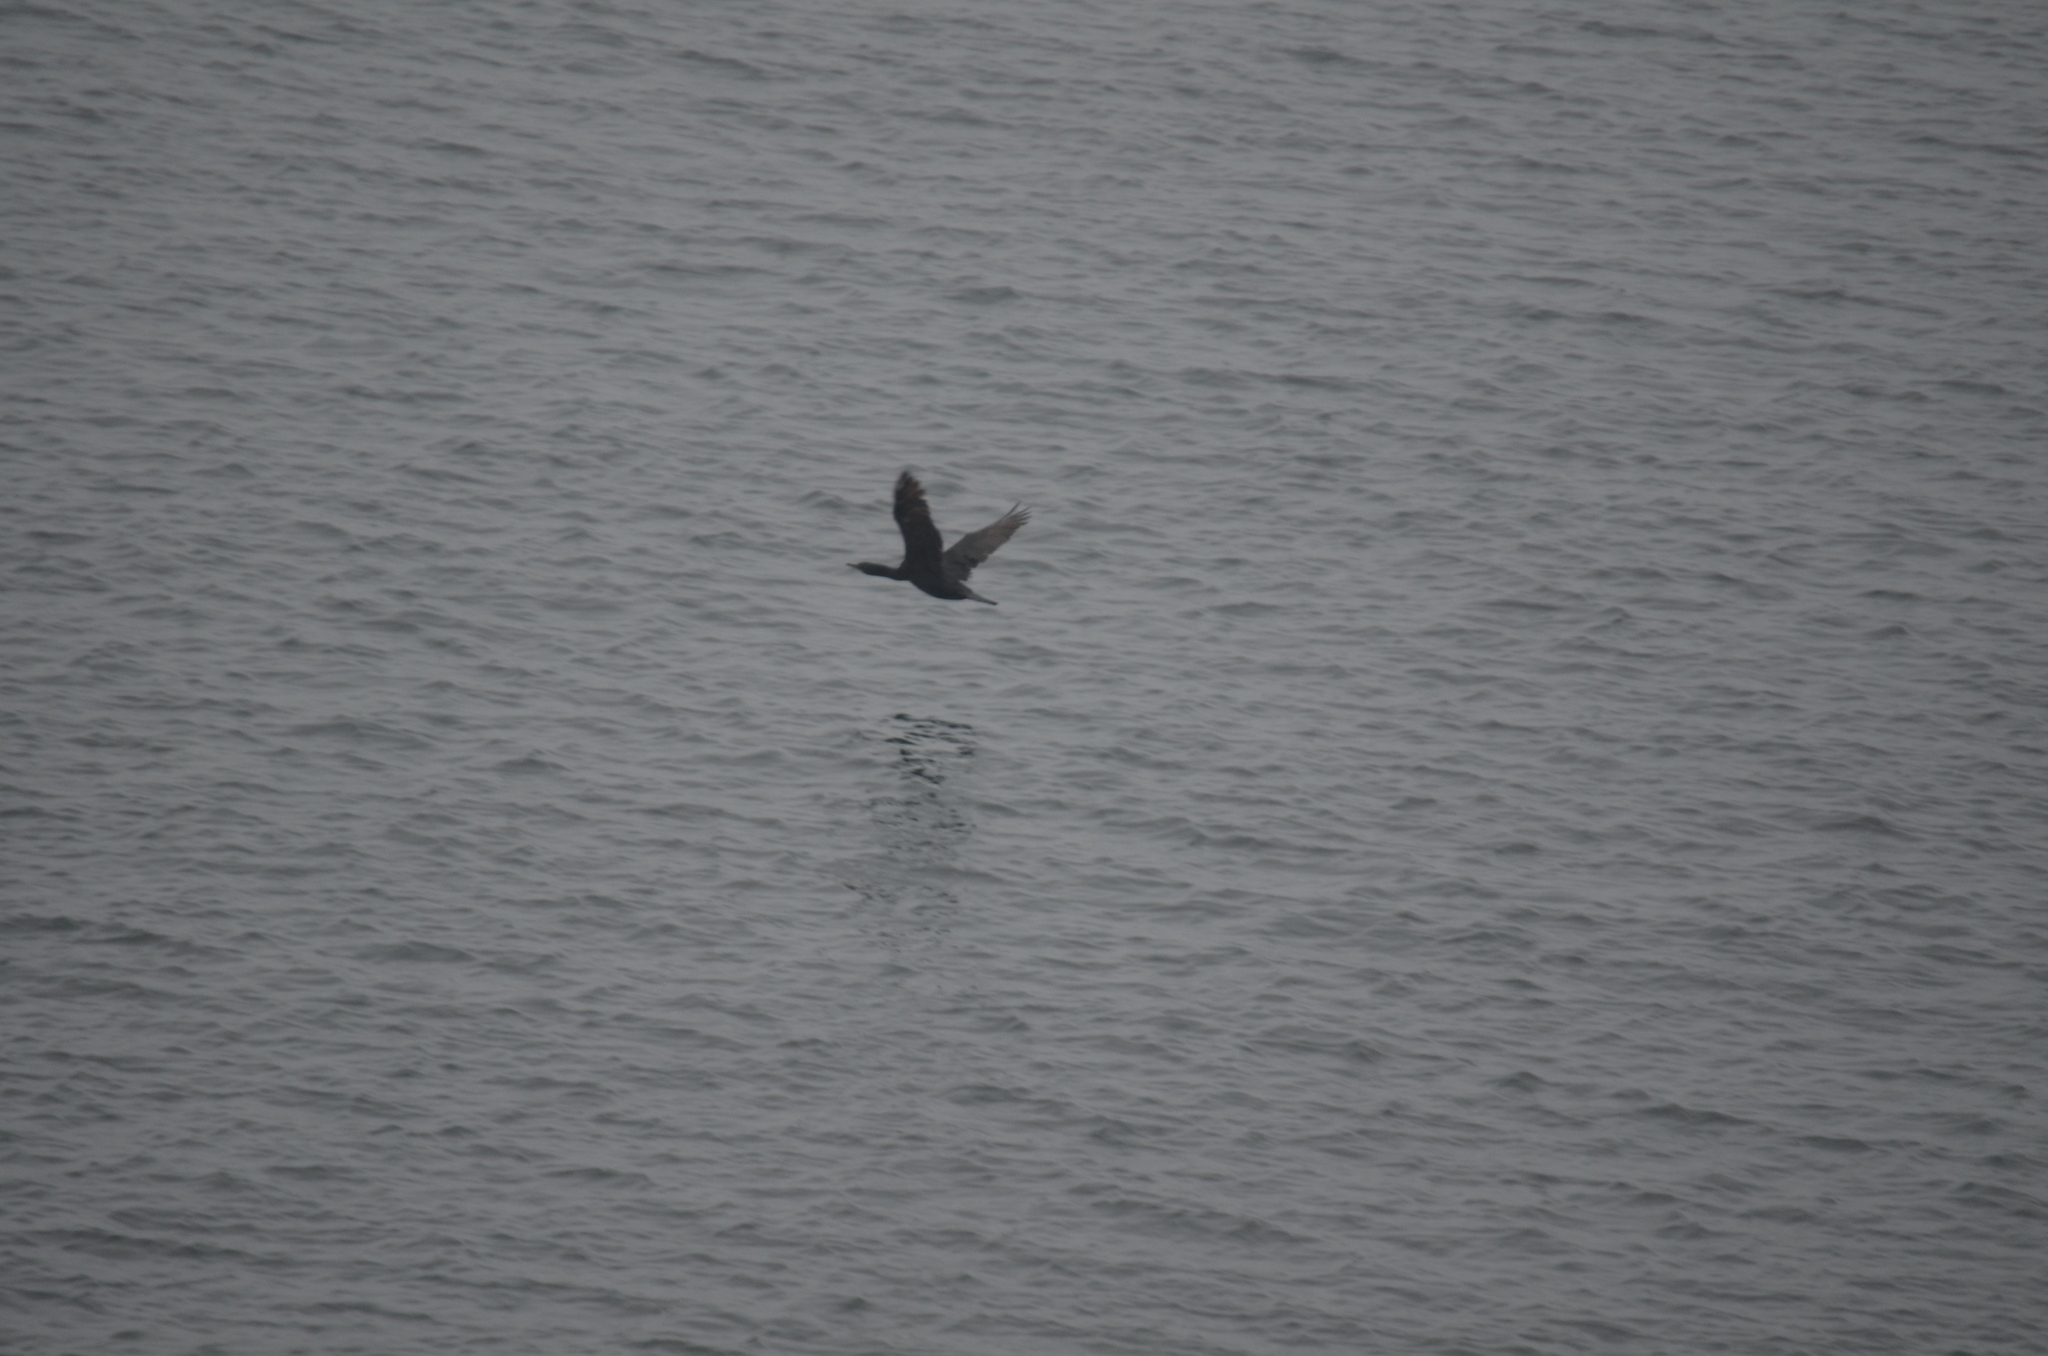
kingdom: Animalia
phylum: Chordata
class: Aves
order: Suliformes
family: Phalacrocoracidae
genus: Phalacrocorax
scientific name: Phalacrocorax pelagicus
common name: Pelagic cormorant
